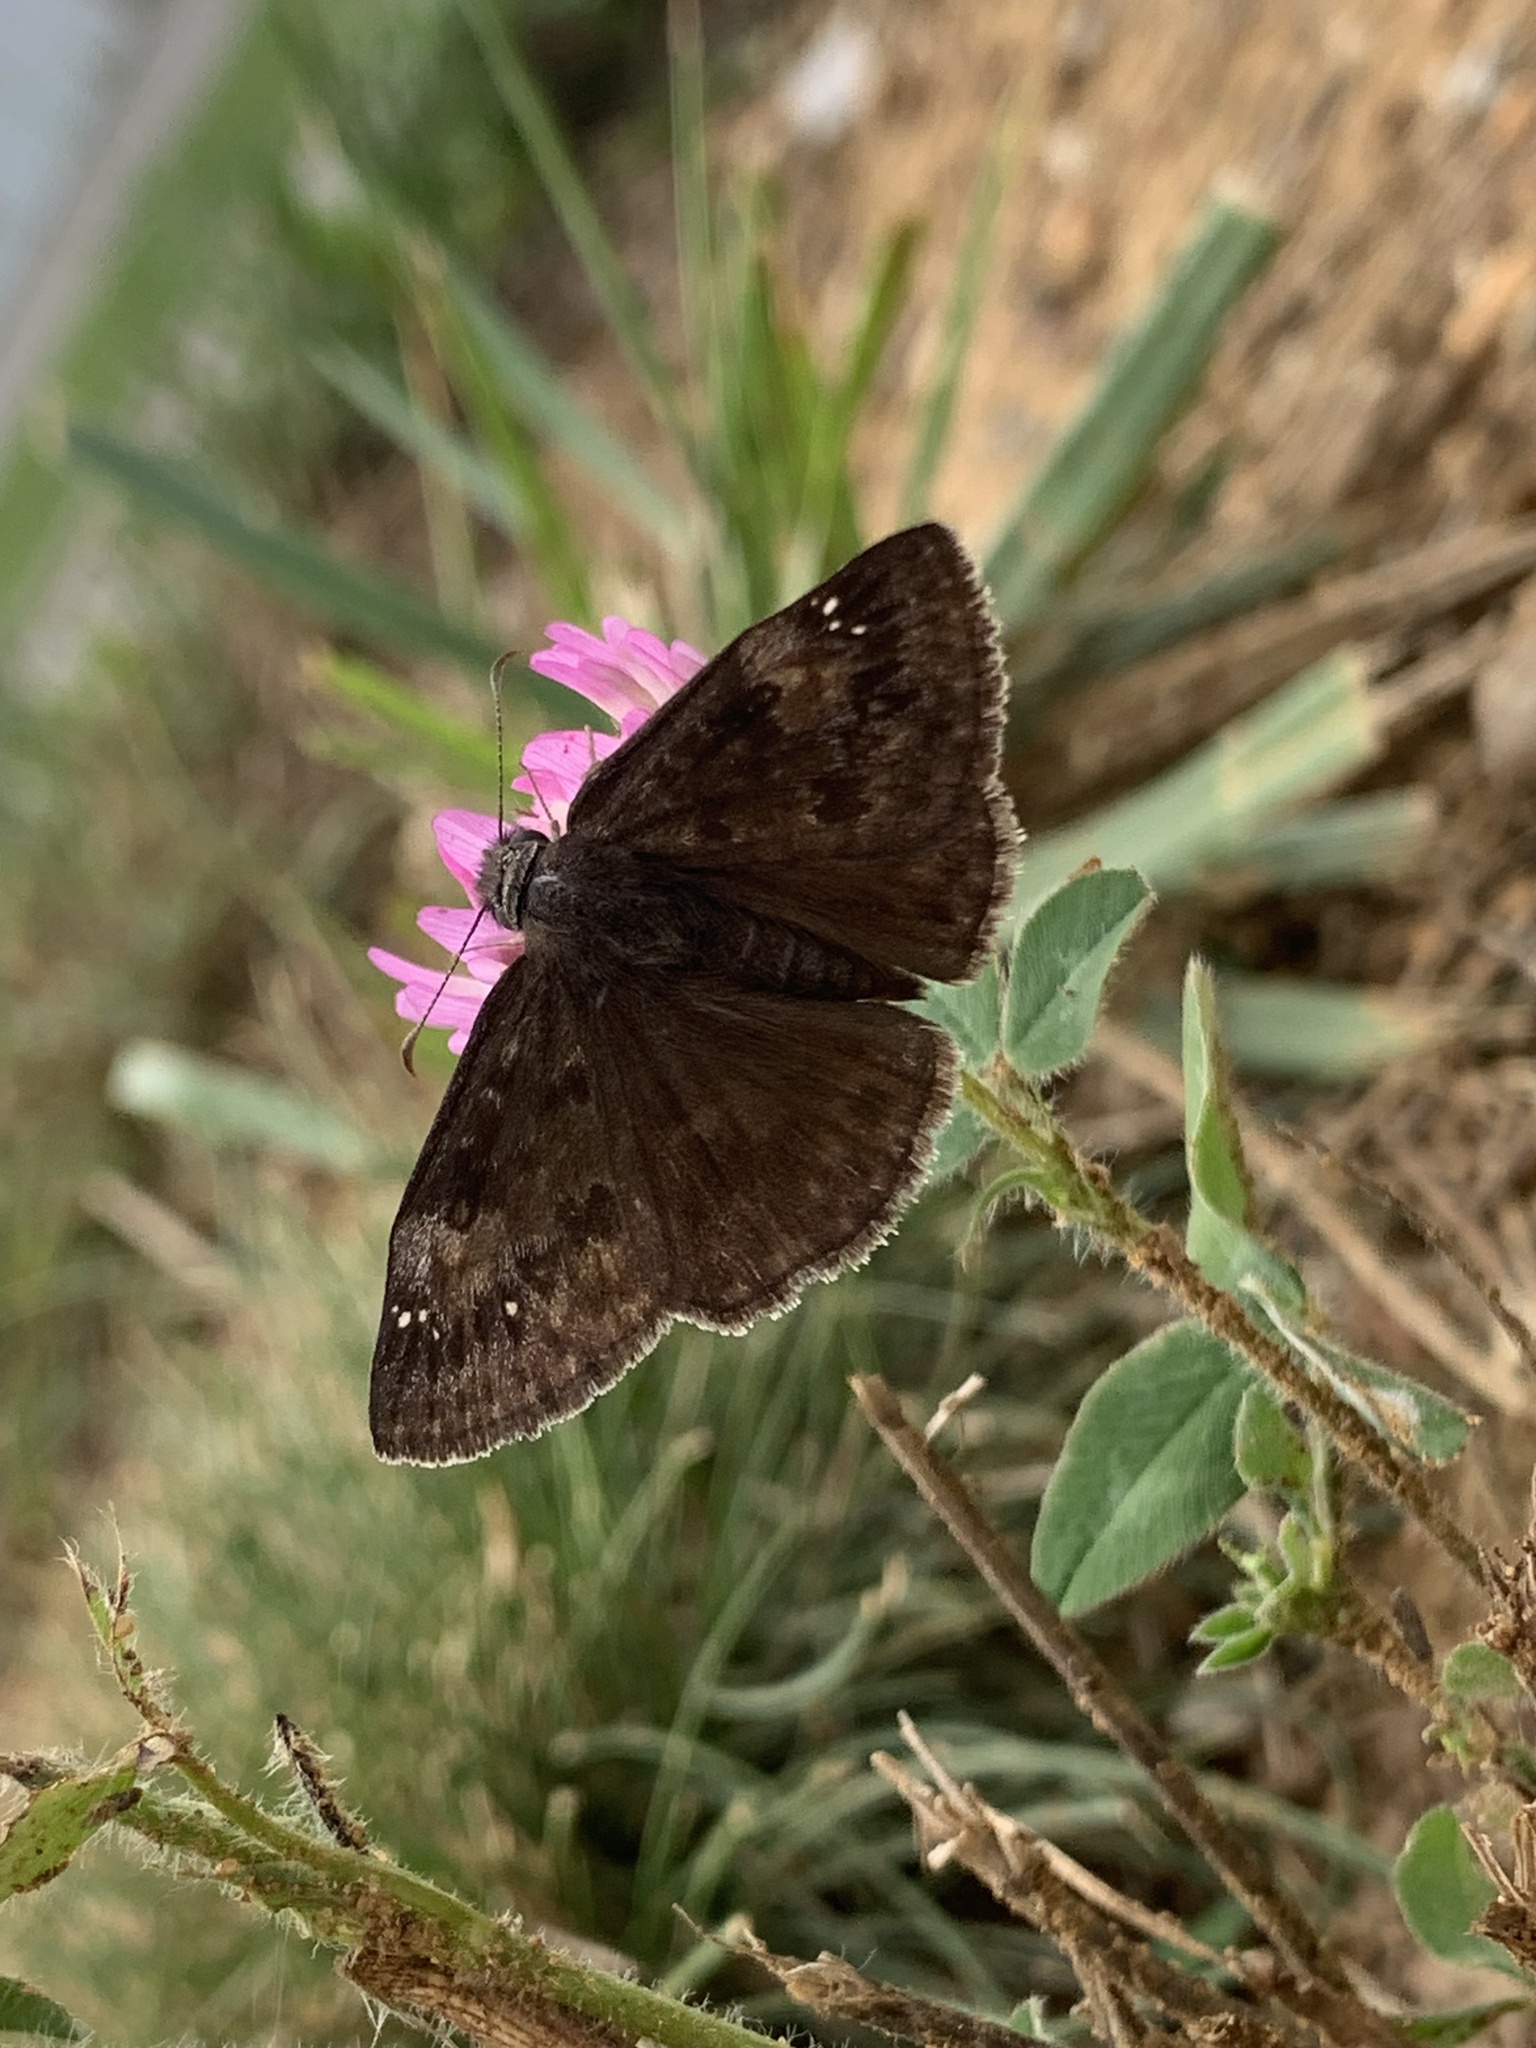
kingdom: Animalia
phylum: Arthropoda
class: Insecta
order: Lepidoptera
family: Hesperiidae
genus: Erynnis
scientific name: Erynnis baptisiae
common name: Wild indigo duskywing
